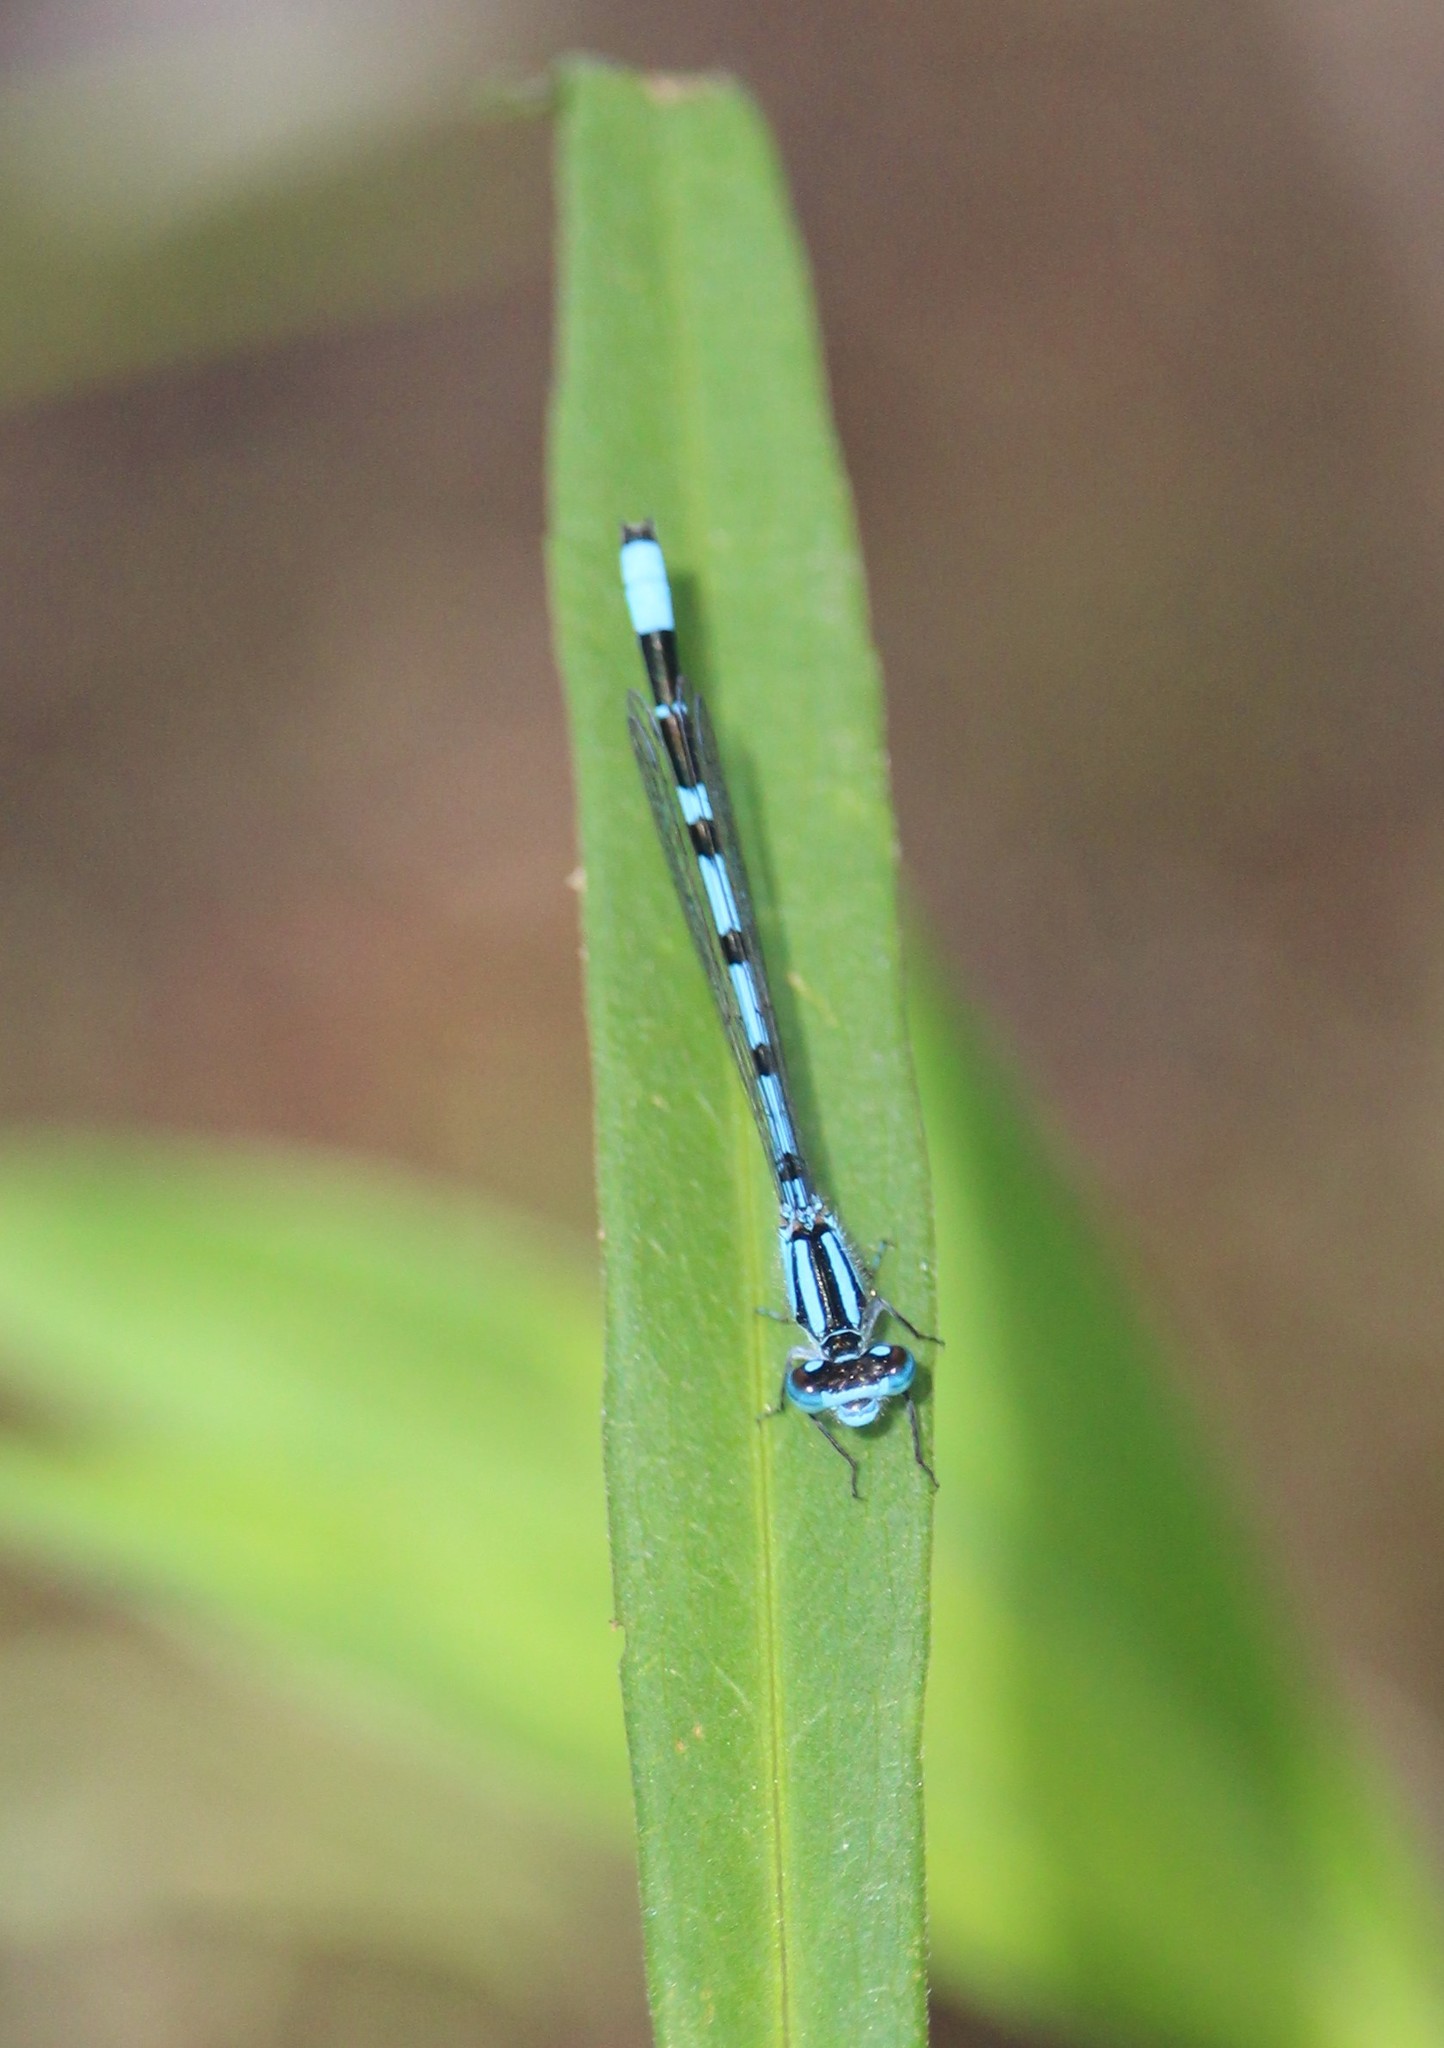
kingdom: Animalia
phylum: Arthropoda
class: Insecta
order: Odonata
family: Coenagrionidae
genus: Enallagma
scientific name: Enallagma civile
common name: Damselfly
